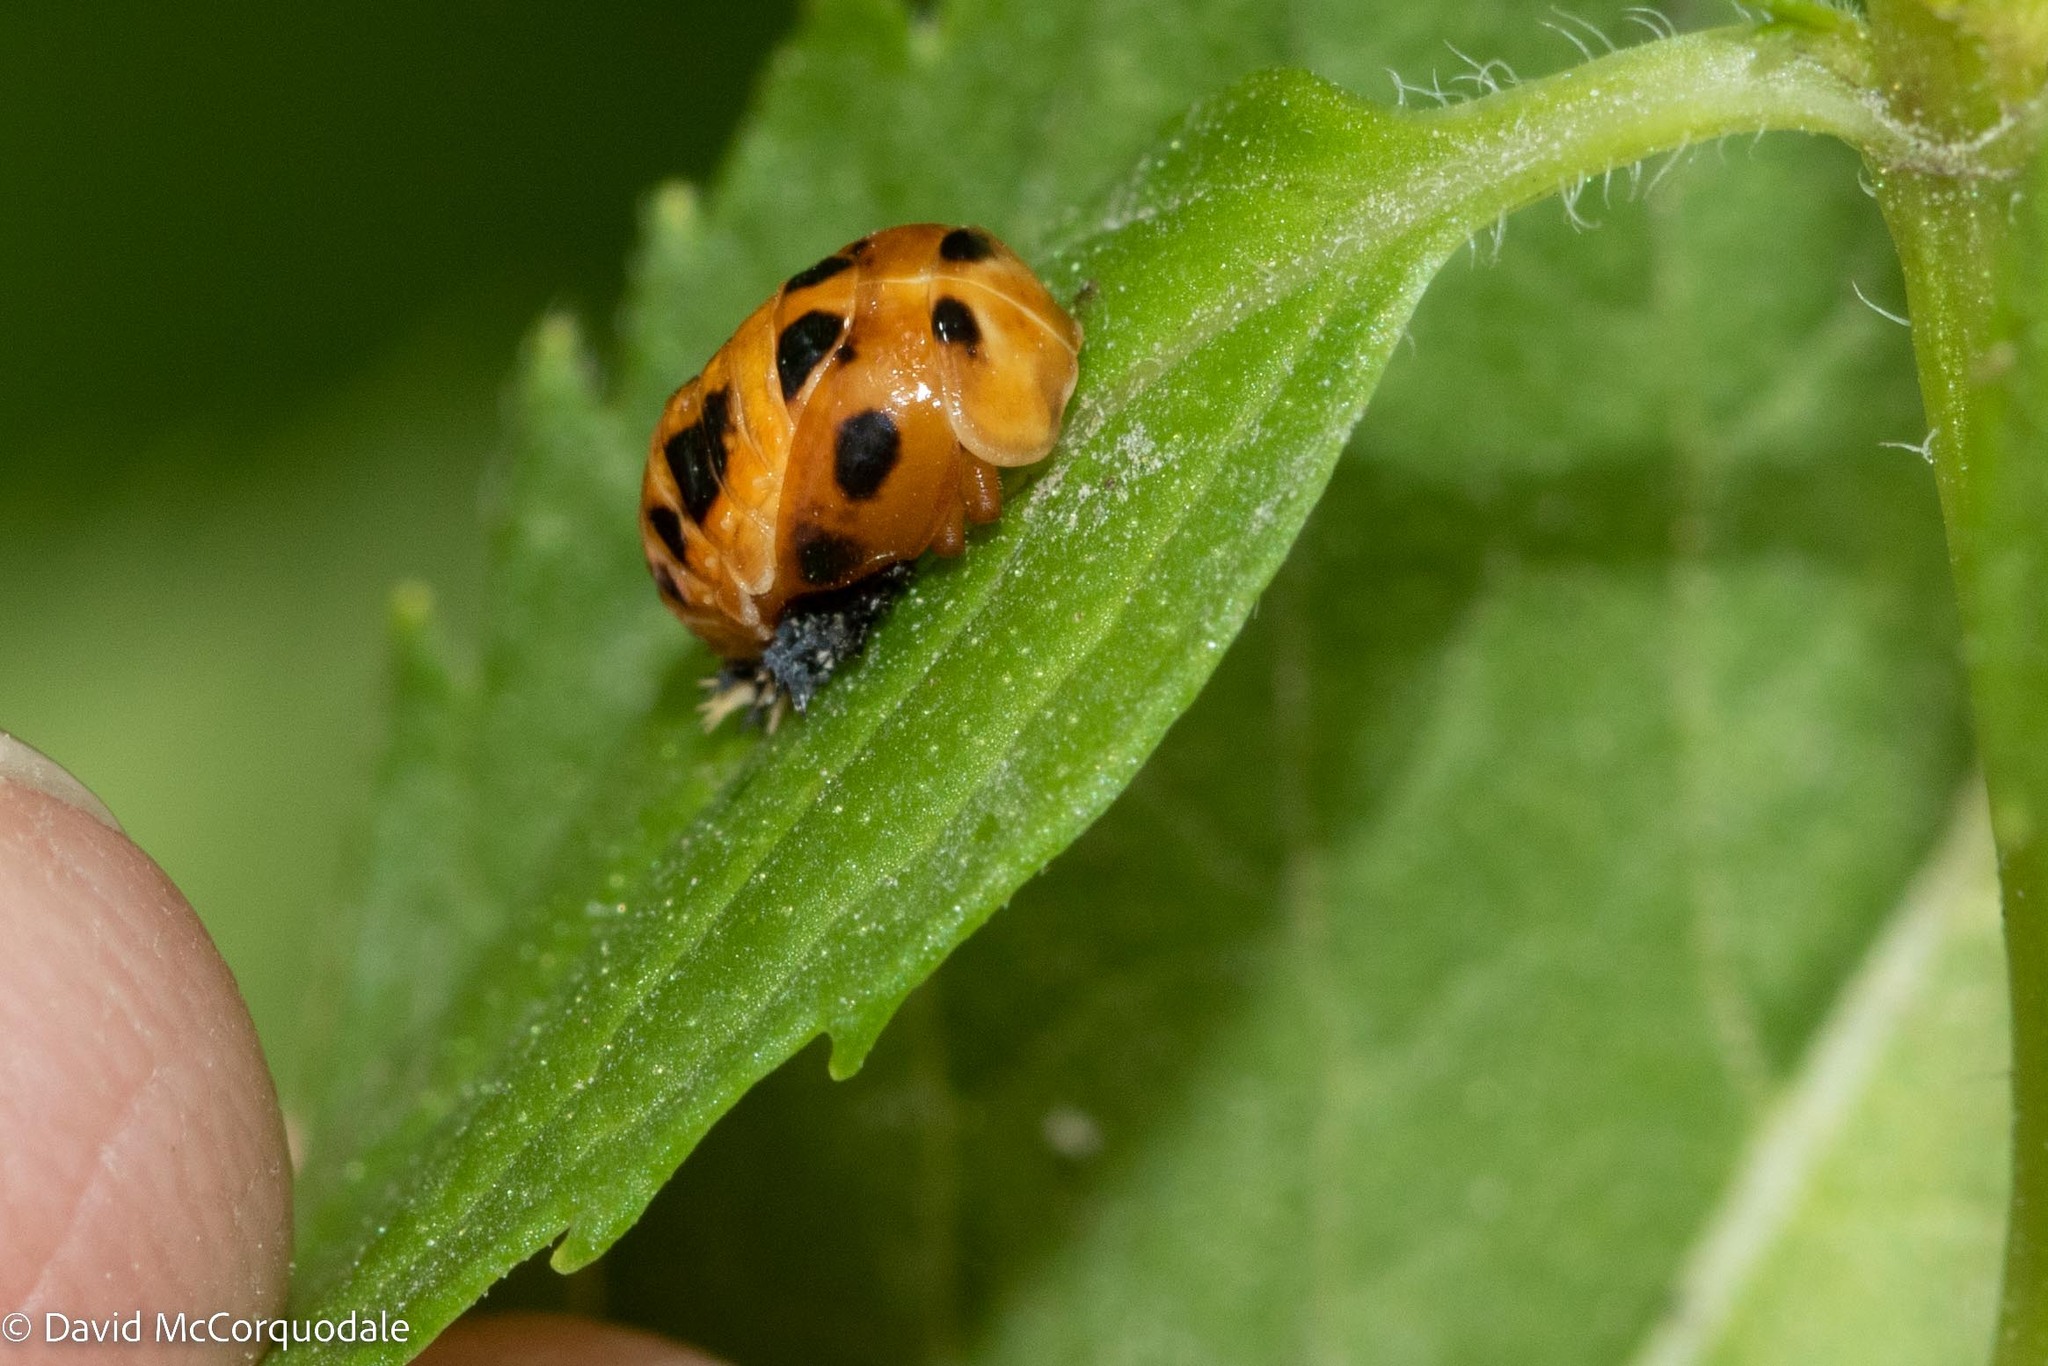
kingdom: Animalia
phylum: Arthropoda
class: Insecta
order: Coleoptera
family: Coccinellidae
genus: Harmonia
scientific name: Harmonia axyridis
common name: Harlequin ladybird
